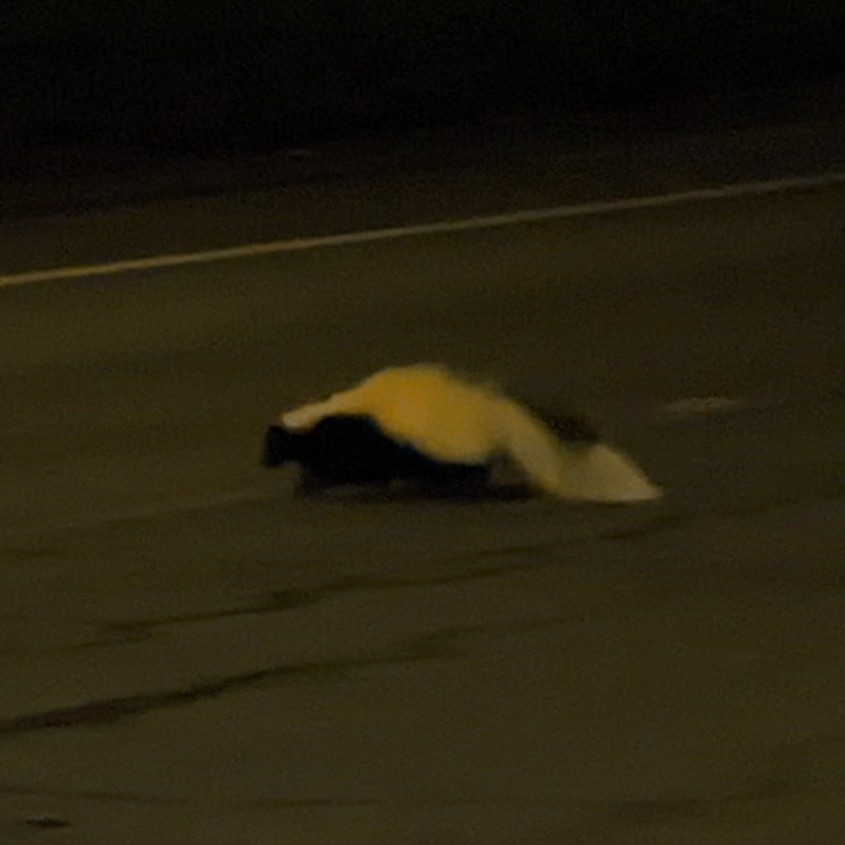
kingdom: Animalia
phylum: Chordata
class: Mammalia
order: Carnivora
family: Mephitidae
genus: Mephitis
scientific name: Mephitis mephitis
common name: Striped skunk
